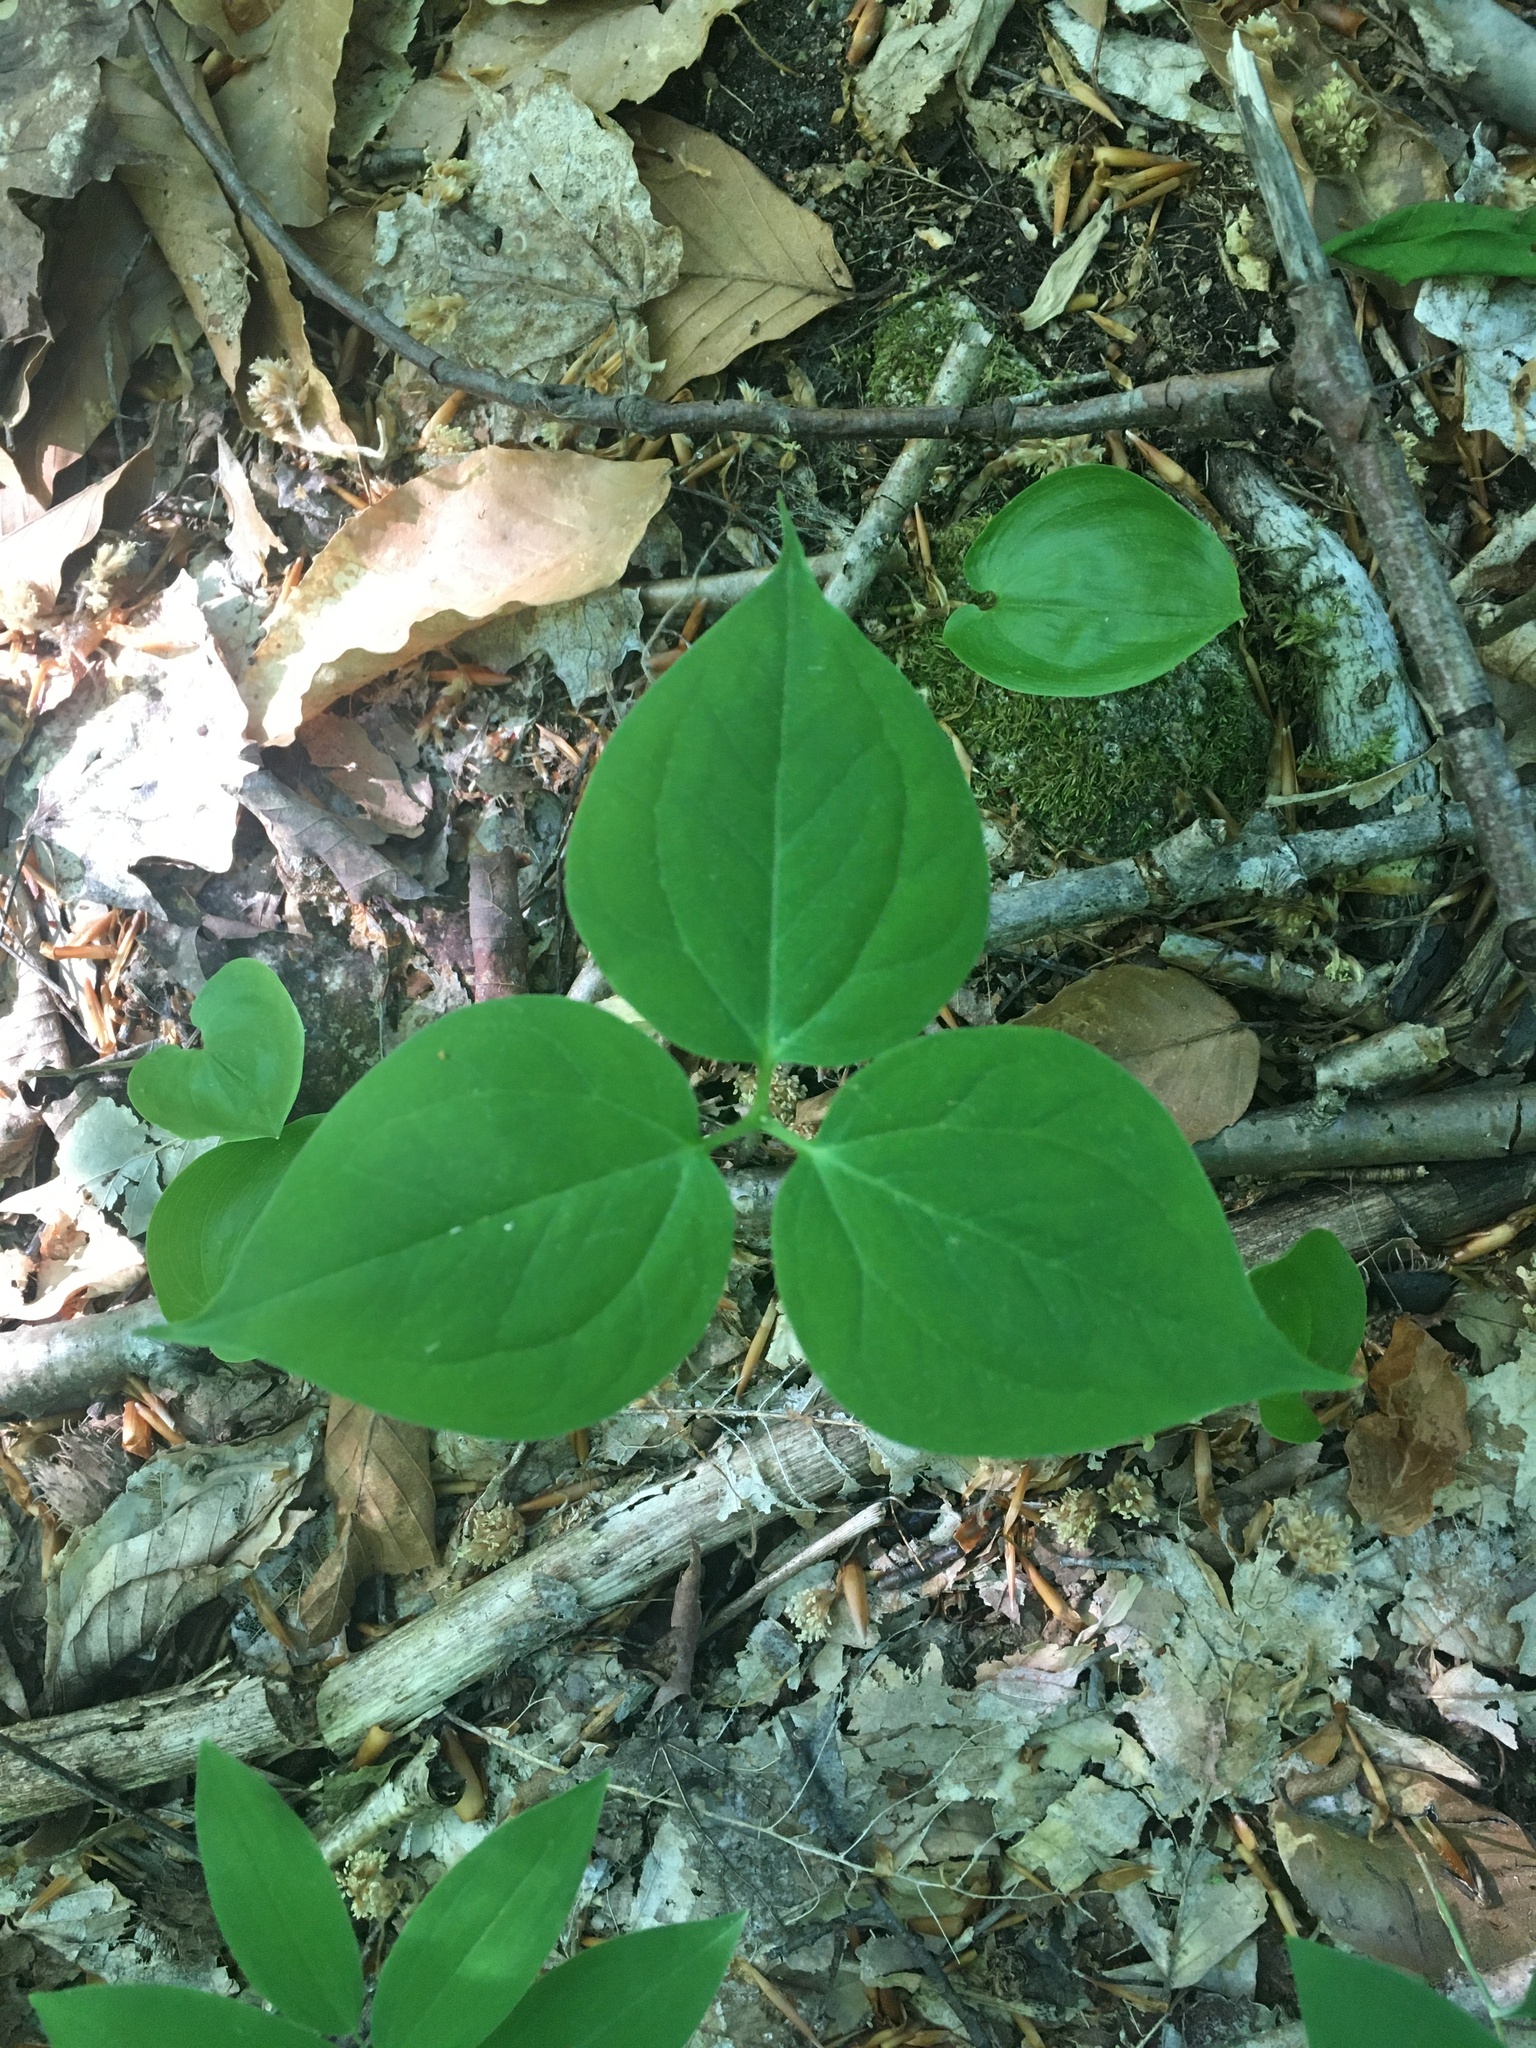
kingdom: Plantae
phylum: Tracheophyta
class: Liliopsida
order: Liliales
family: Melanthiaceae
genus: Trillium
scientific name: Trillium undulatum
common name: Paint trillium
